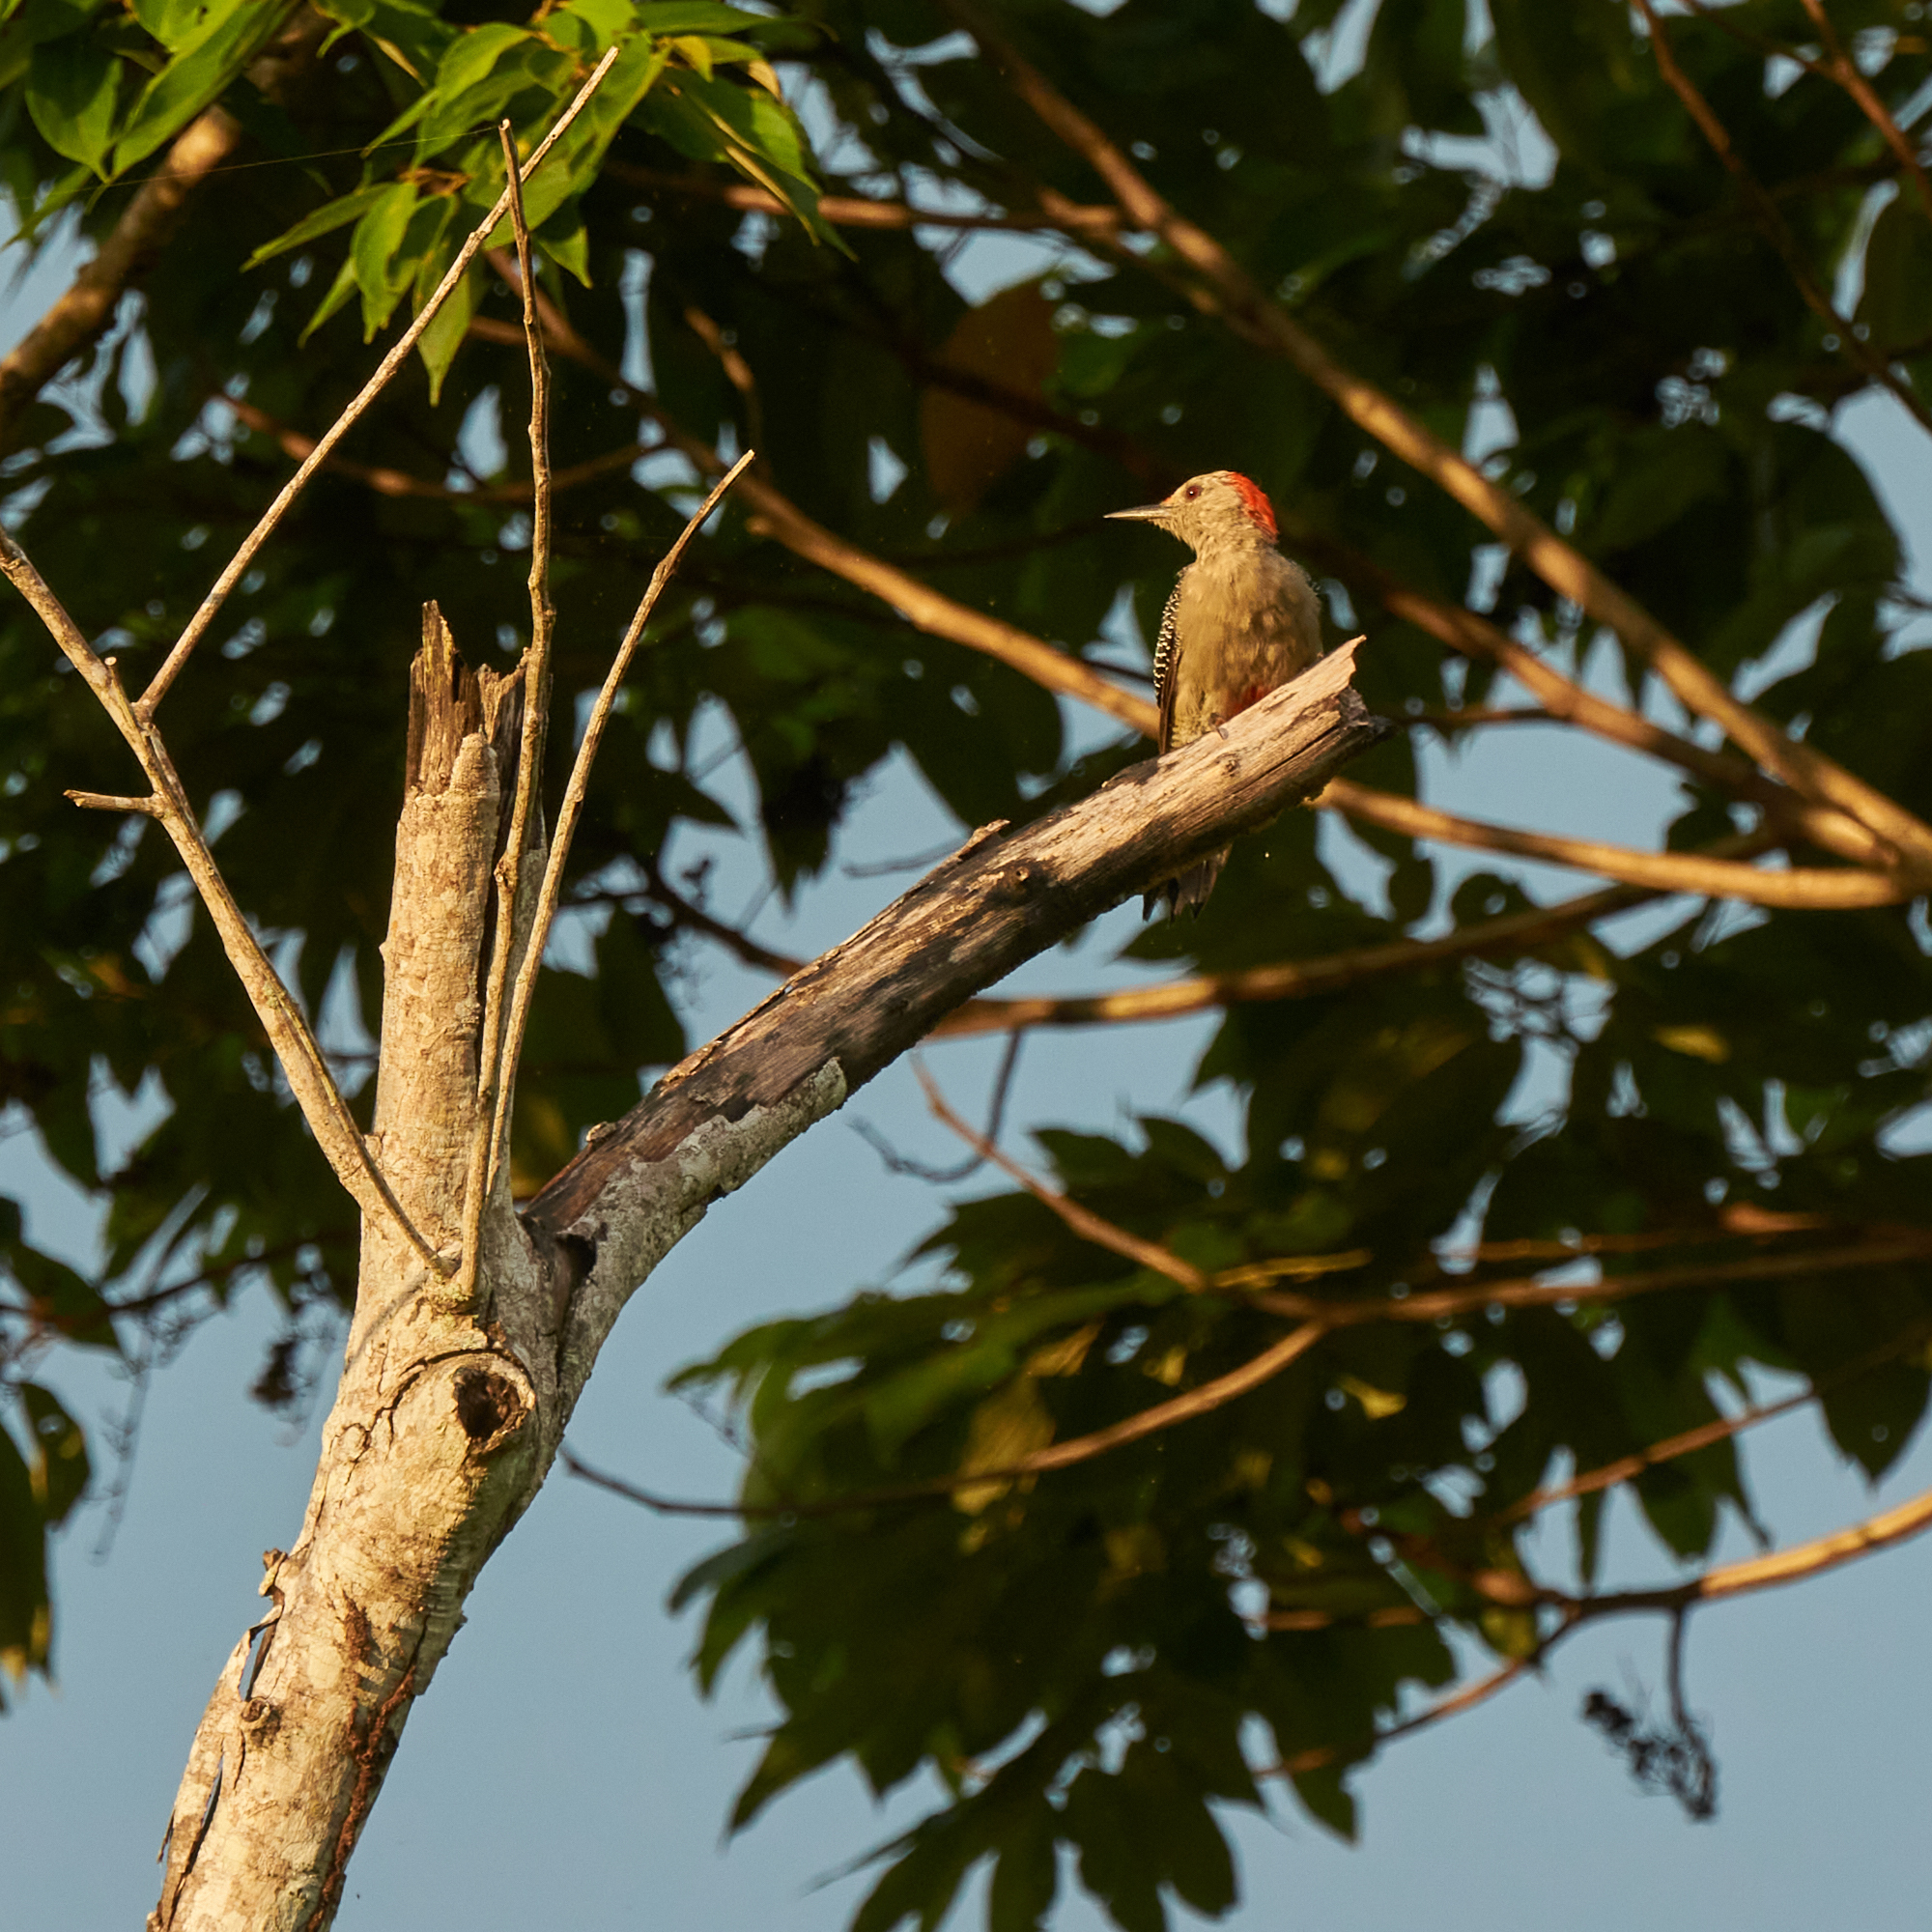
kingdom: Animalia
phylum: Chordata
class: Aves
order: Piciformes
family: Picidae
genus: Melanerpes
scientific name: Melanerpes aurifrons
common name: Golden-fronted woodpecker
